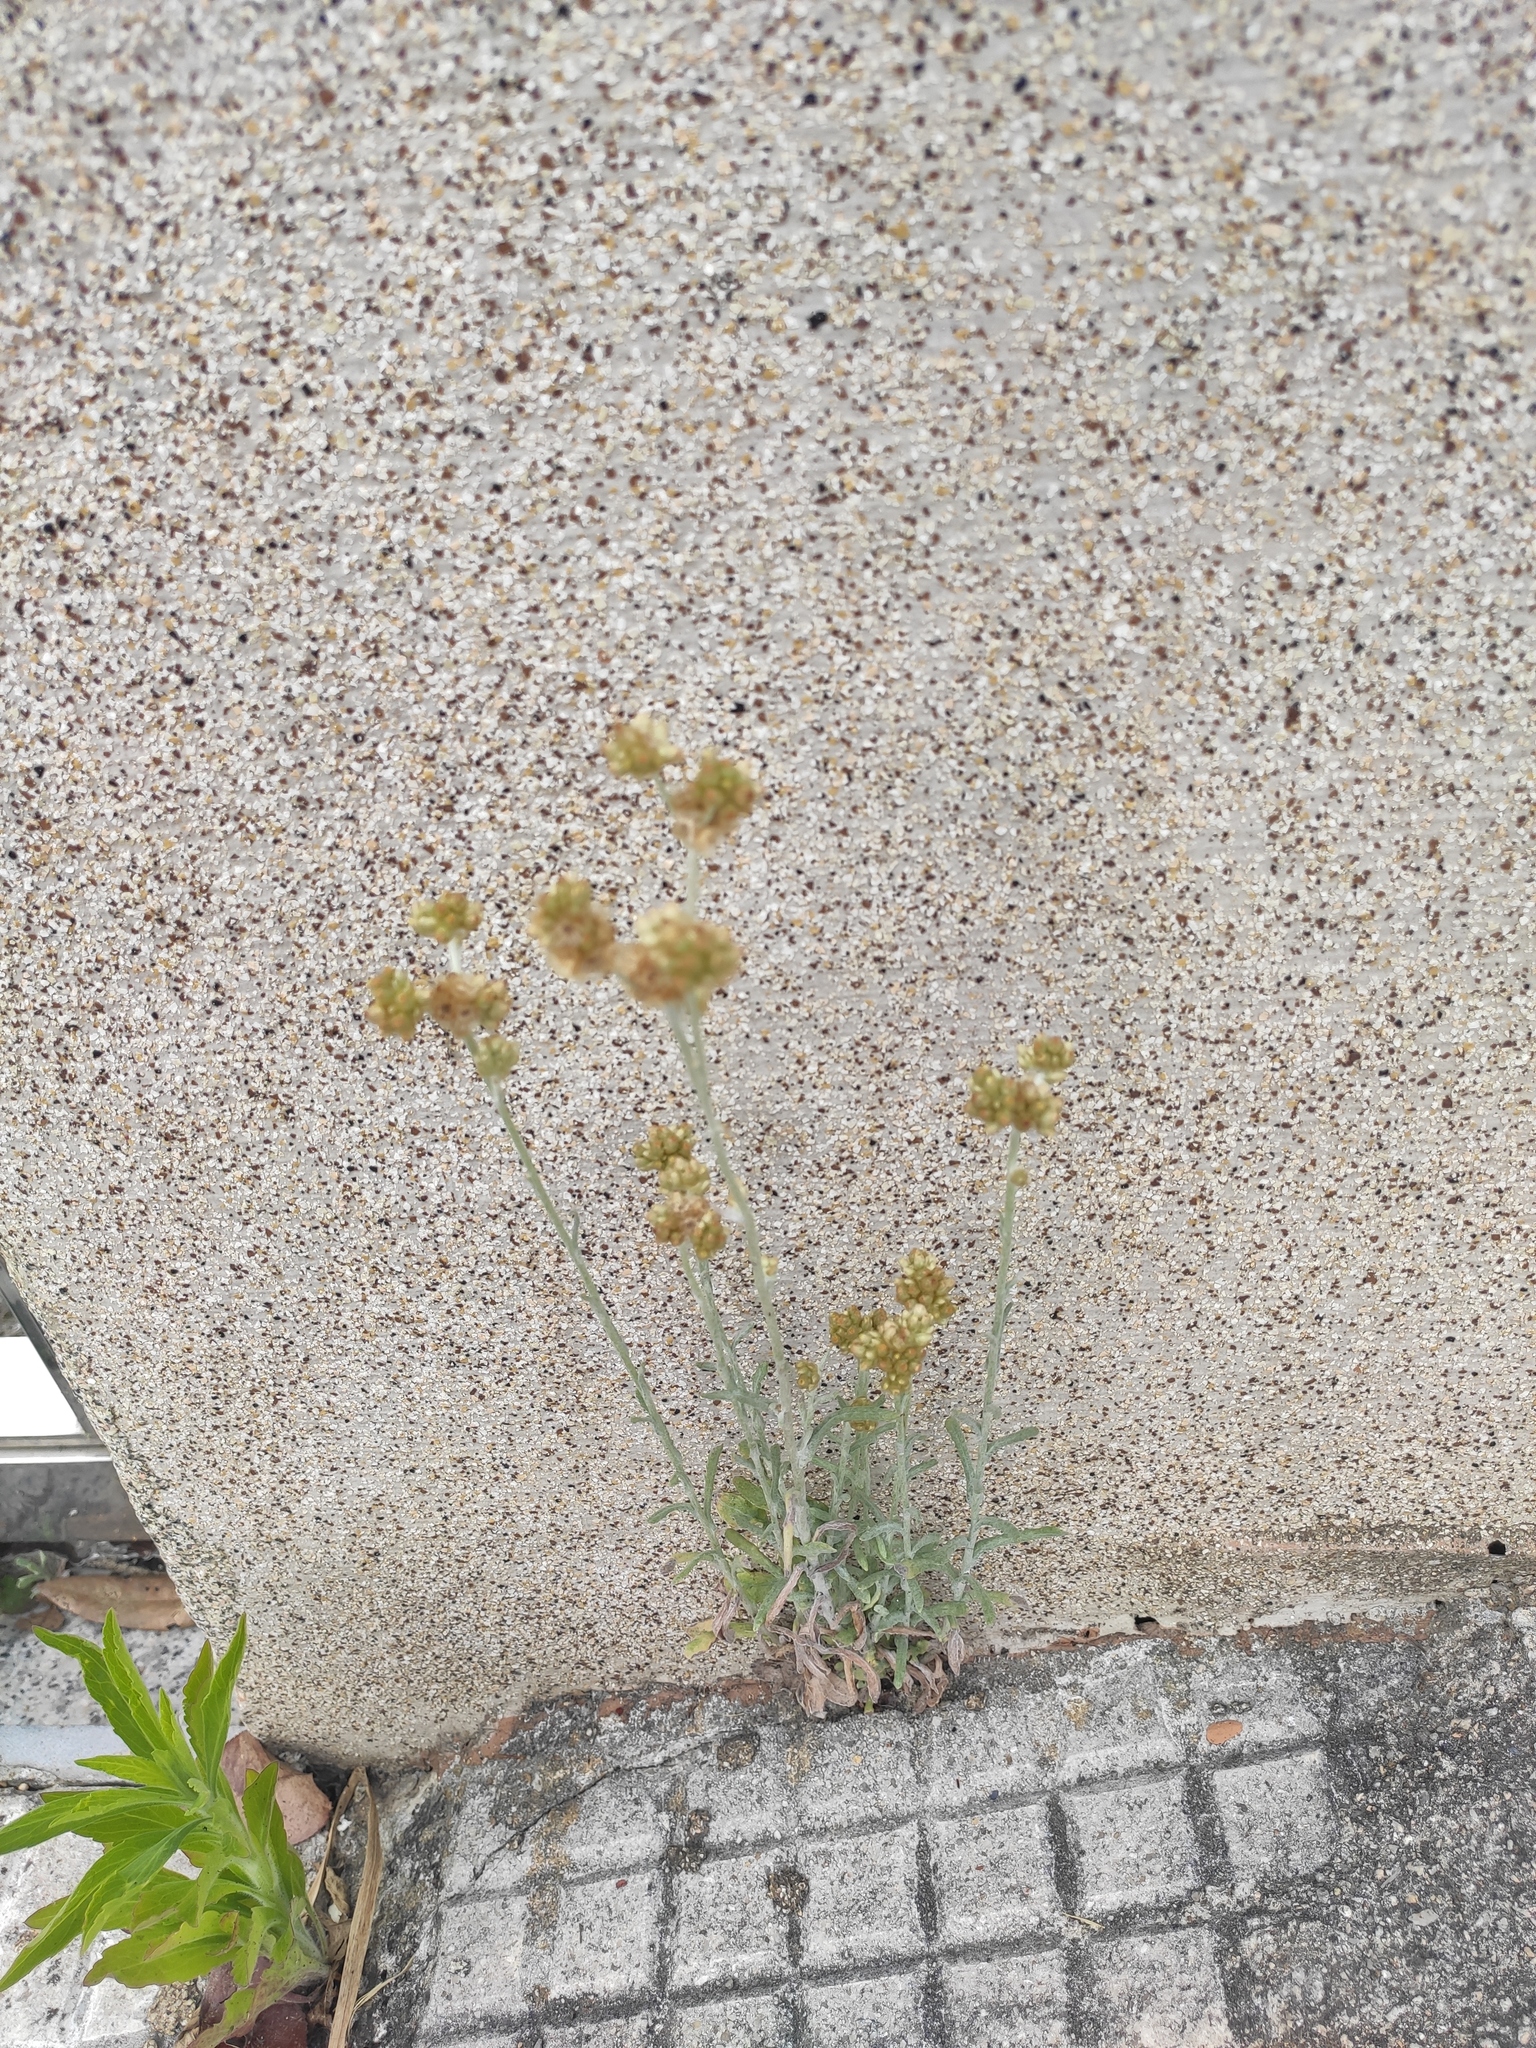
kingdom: Plantae
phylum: Tracheophyta
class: Magnoliopsida
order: Asterales
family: Asteraceae
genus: Helichrysum
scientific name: Helichrysum luteoalbum
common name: Daisy
